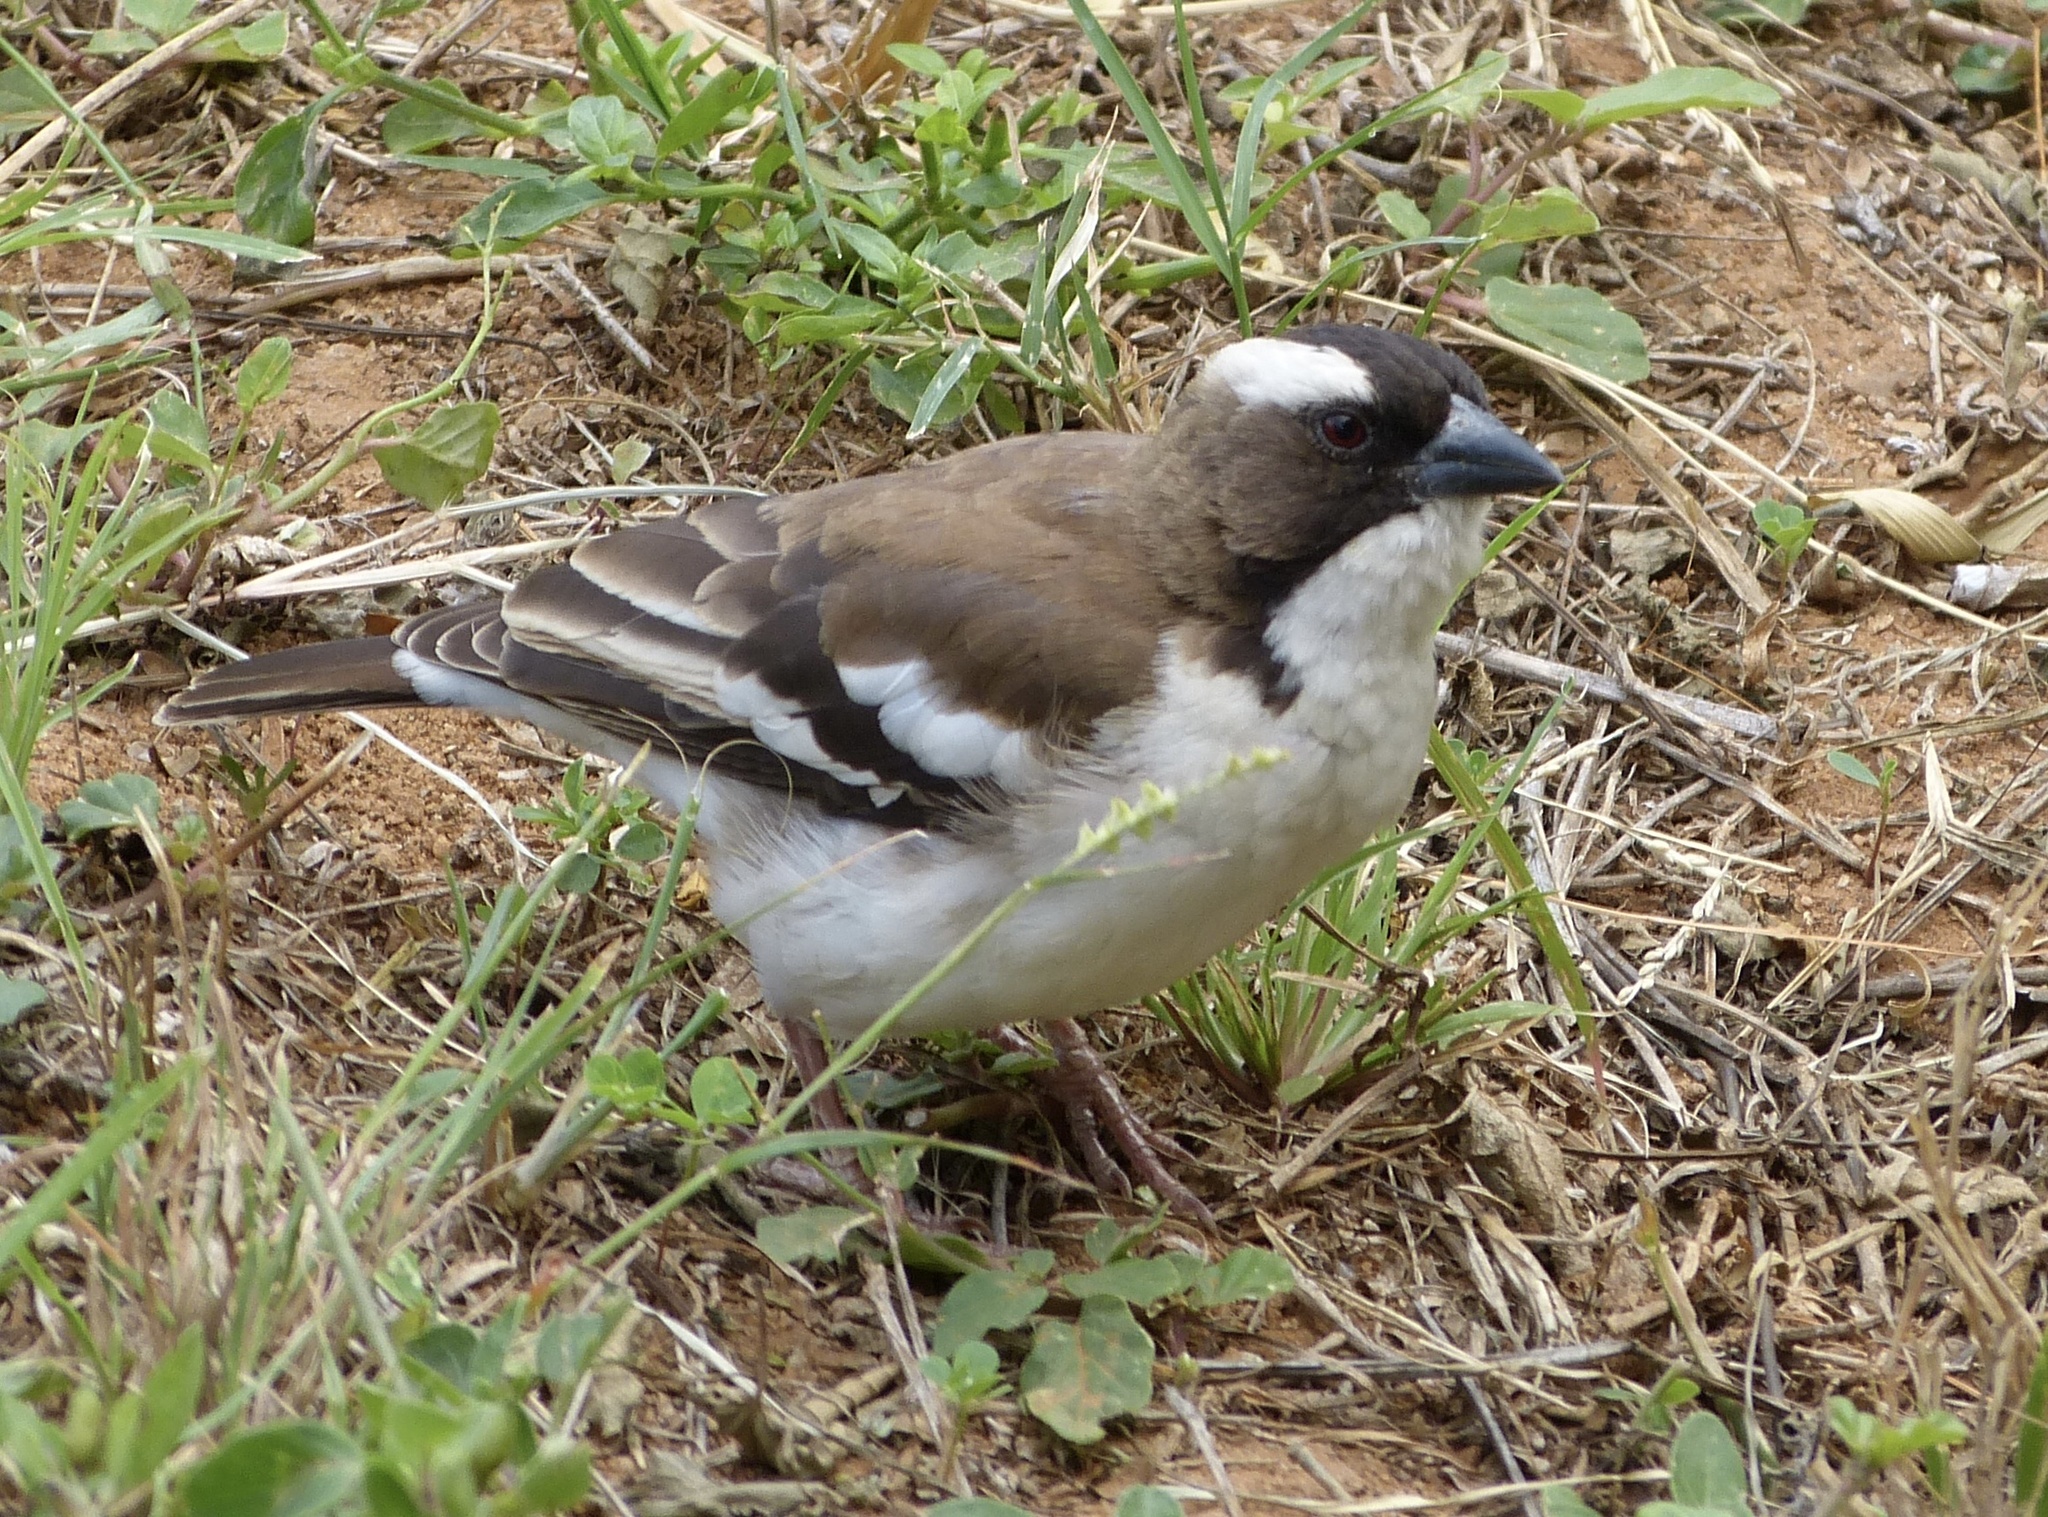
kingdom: Animalia
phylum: Chordata
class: Aves
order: Passeriformes
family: Passeridae
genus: Plocepasser
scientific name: Plocepasser mahali
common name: White-browed sparrow-weaver
